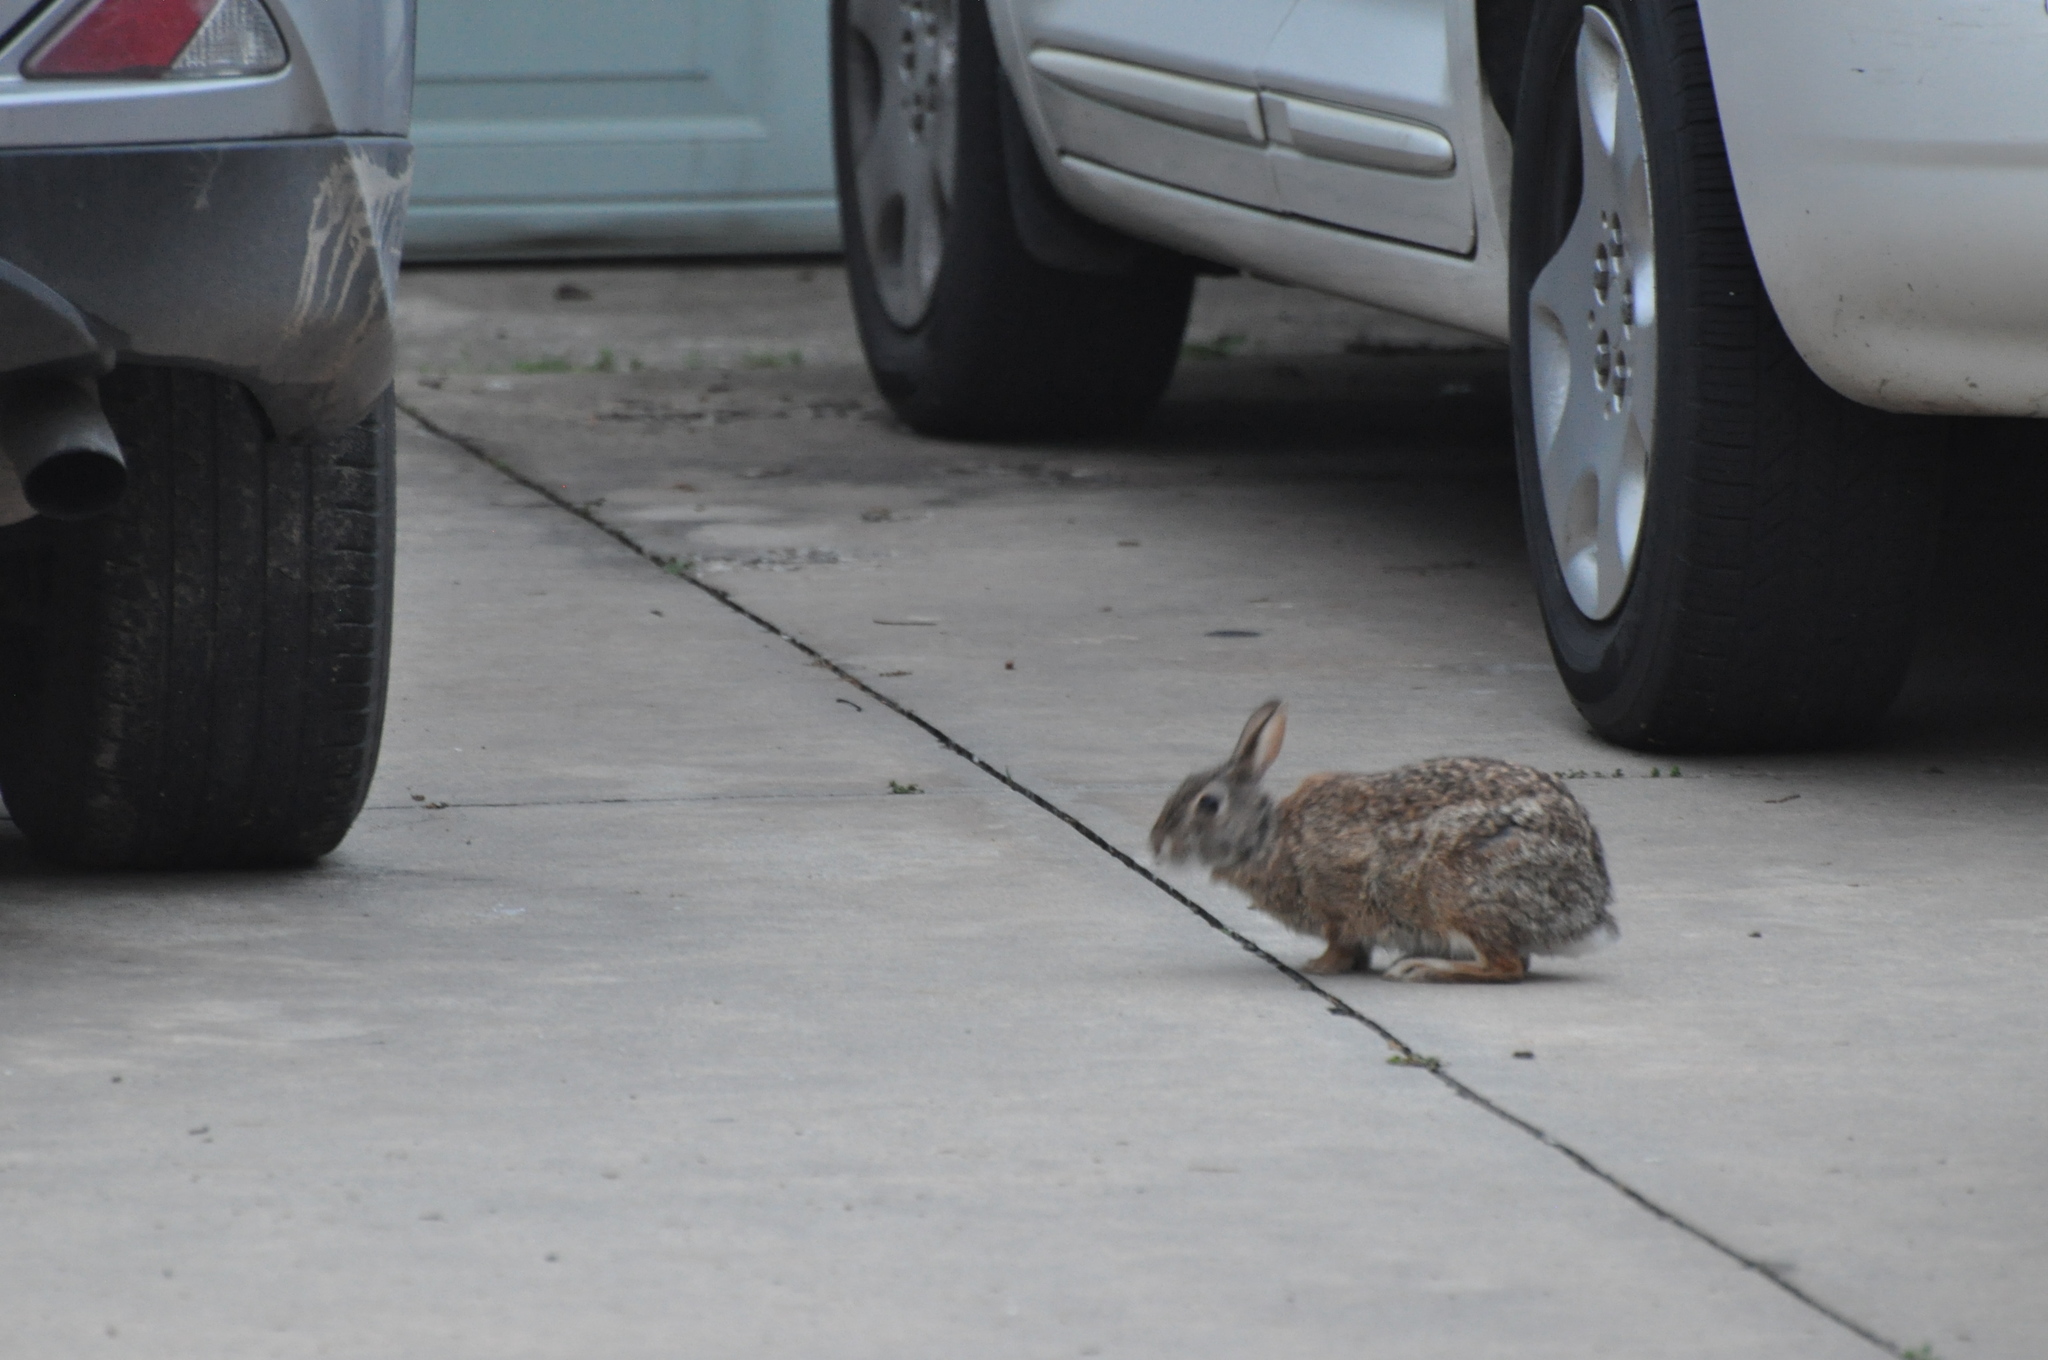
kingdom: Animalia
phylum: Chordata
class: Mammalia
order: Lagomorpha
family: Leporidae
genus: Sylvilagus
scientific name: Sylvilagus floridanus
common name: Eastern cottontail
